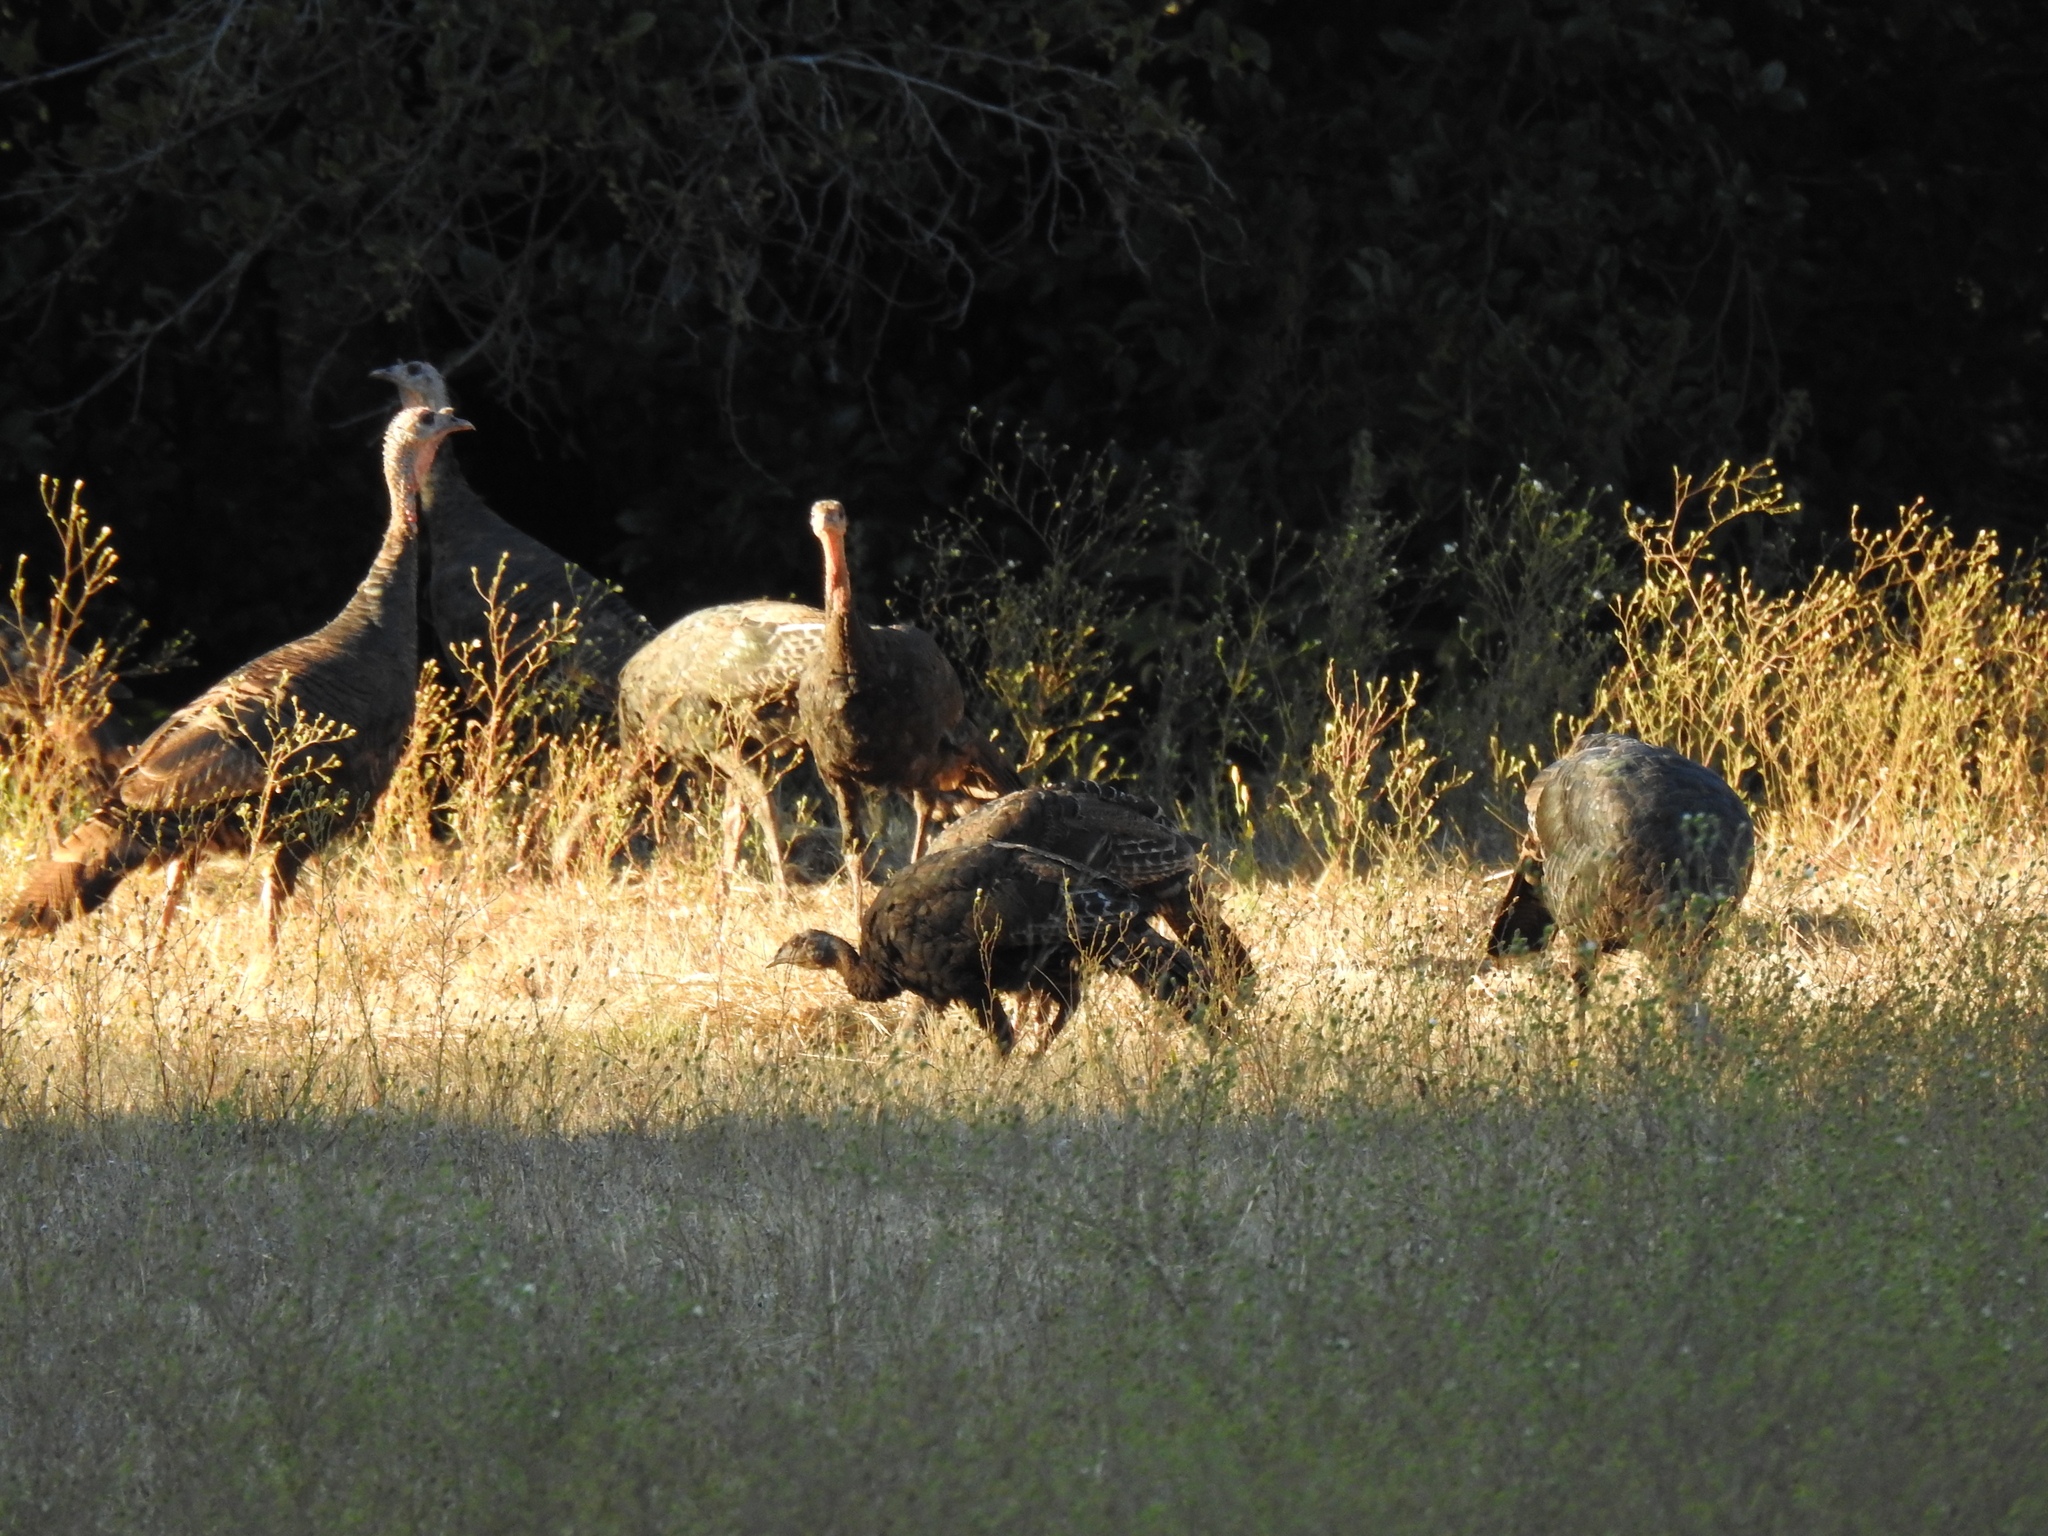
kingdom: Animalia
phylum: Chordata
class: Aves
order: Galliformes
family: Phasianidae
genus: Meleagris
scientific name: Meleagris gallopavo
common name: Wild turkey
